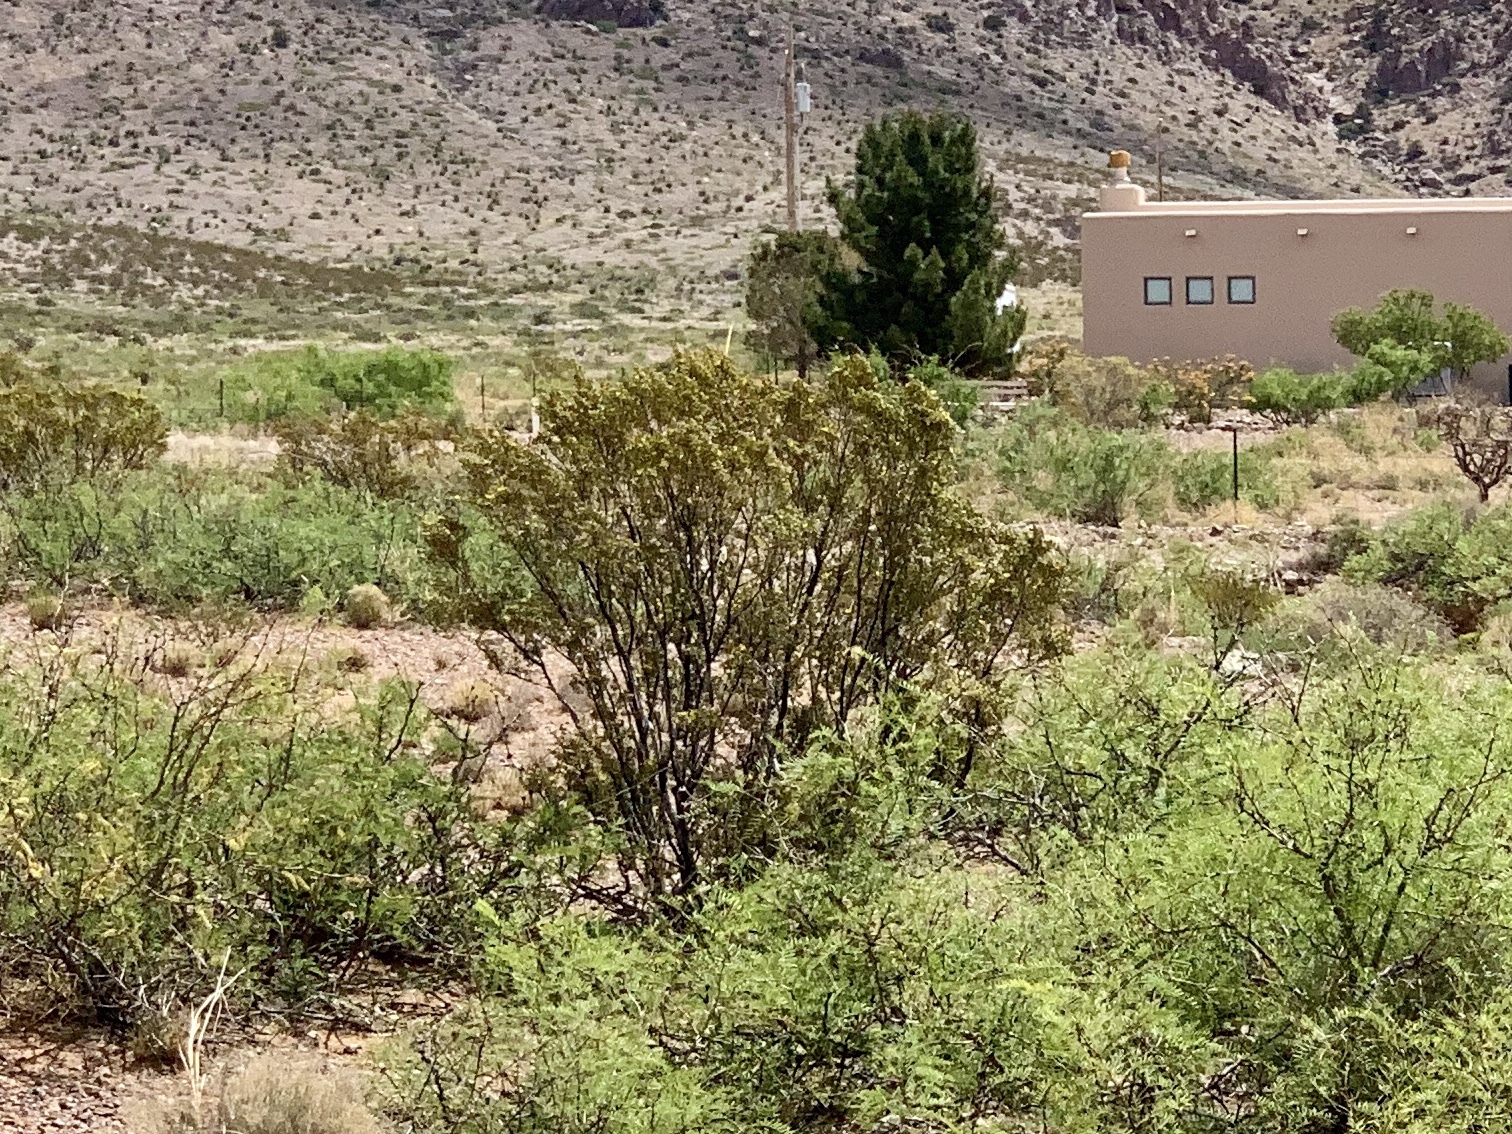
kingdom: Plantae
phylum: Tracheophyta
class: Magnoliopsida
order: Zygophyllales
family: Zygophyllaceae
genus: Larrea
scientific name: Larrea tridentata
